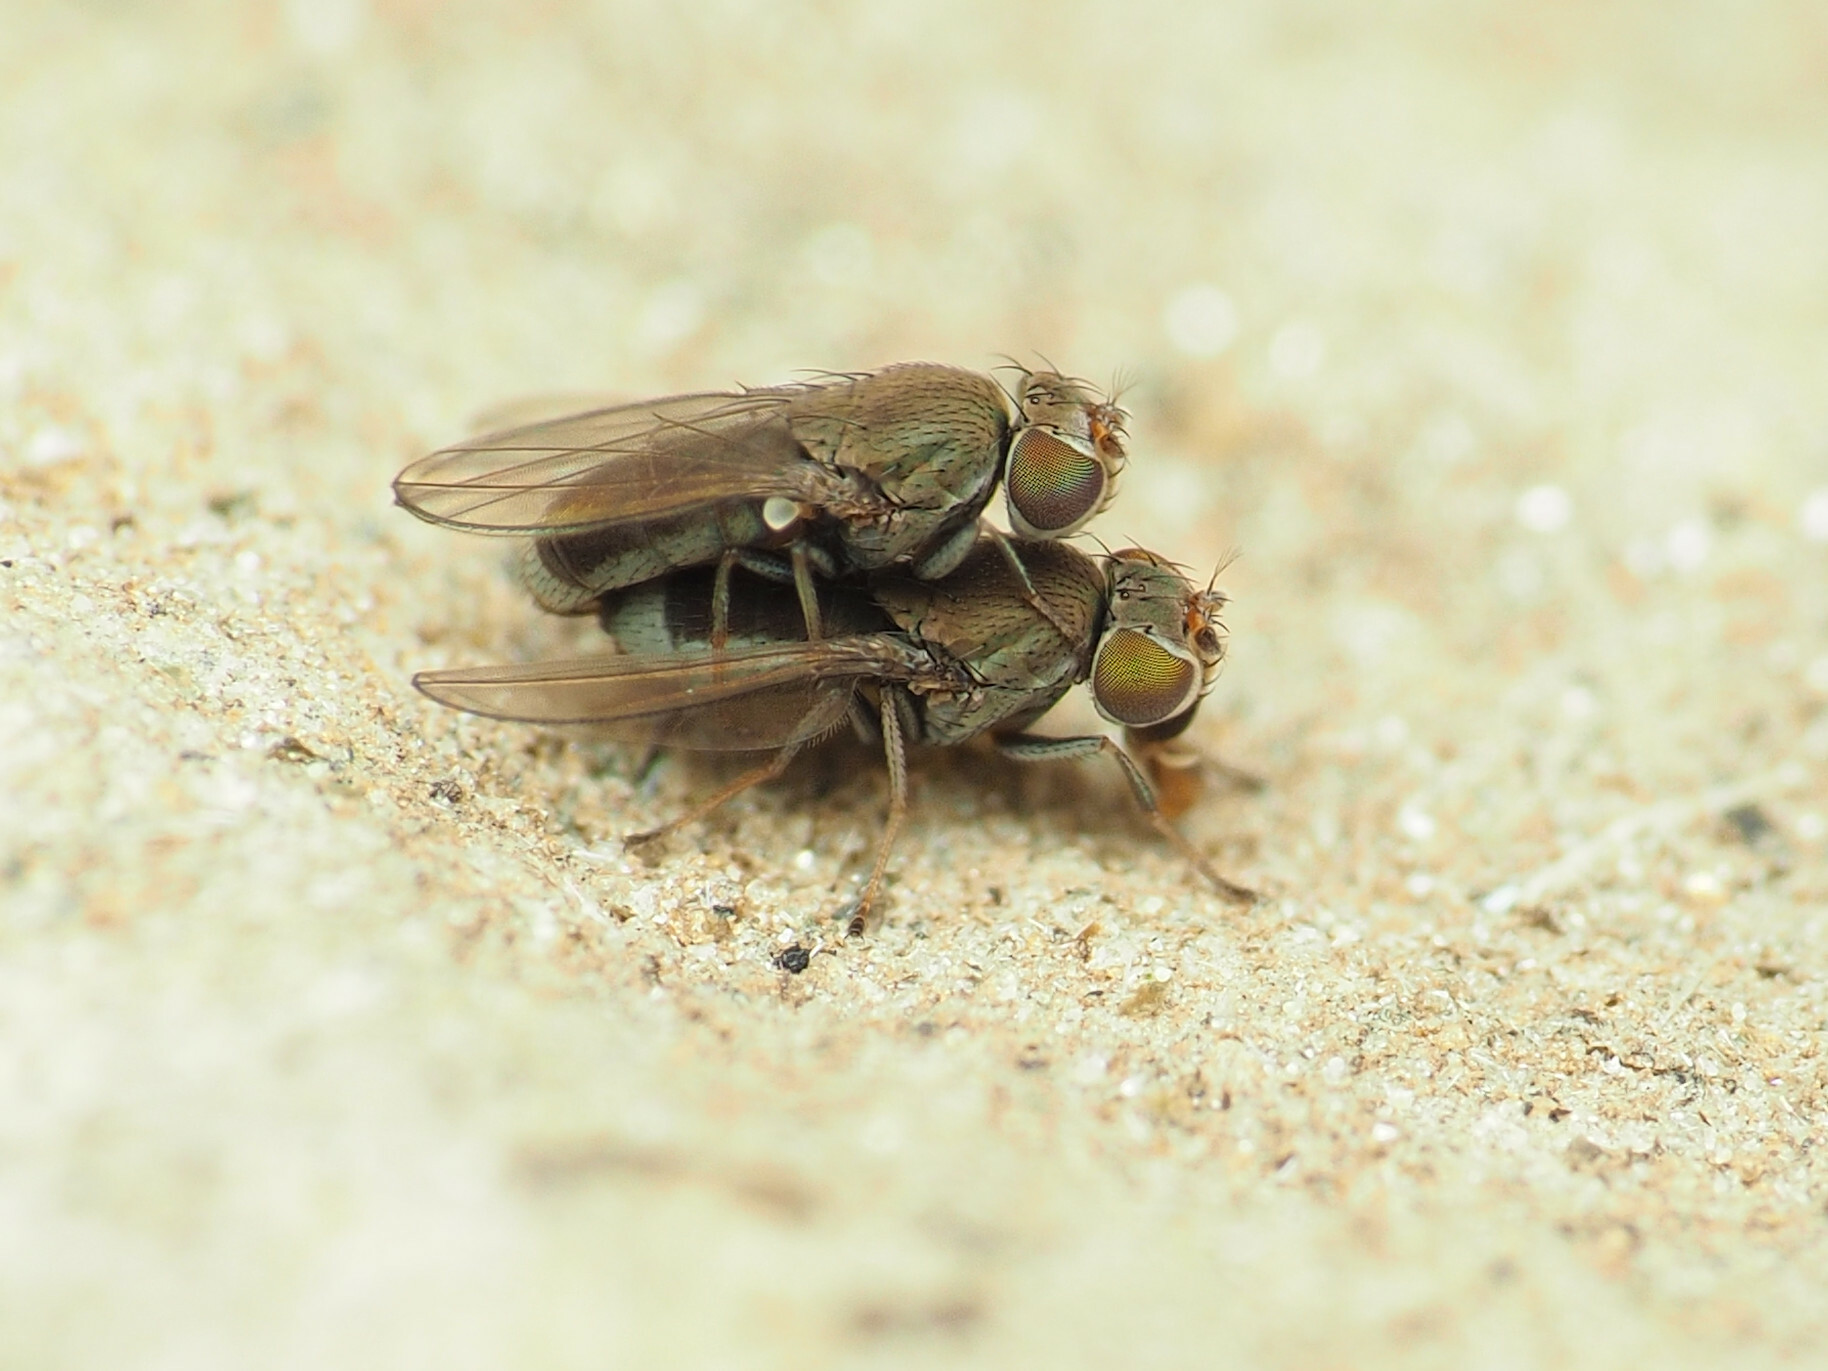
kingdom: Animalia
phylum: Arthropoda
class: Insecta
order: Diptera
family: Ephydridae
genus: Aquachasma
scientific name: Aquachasma leucoproctum
